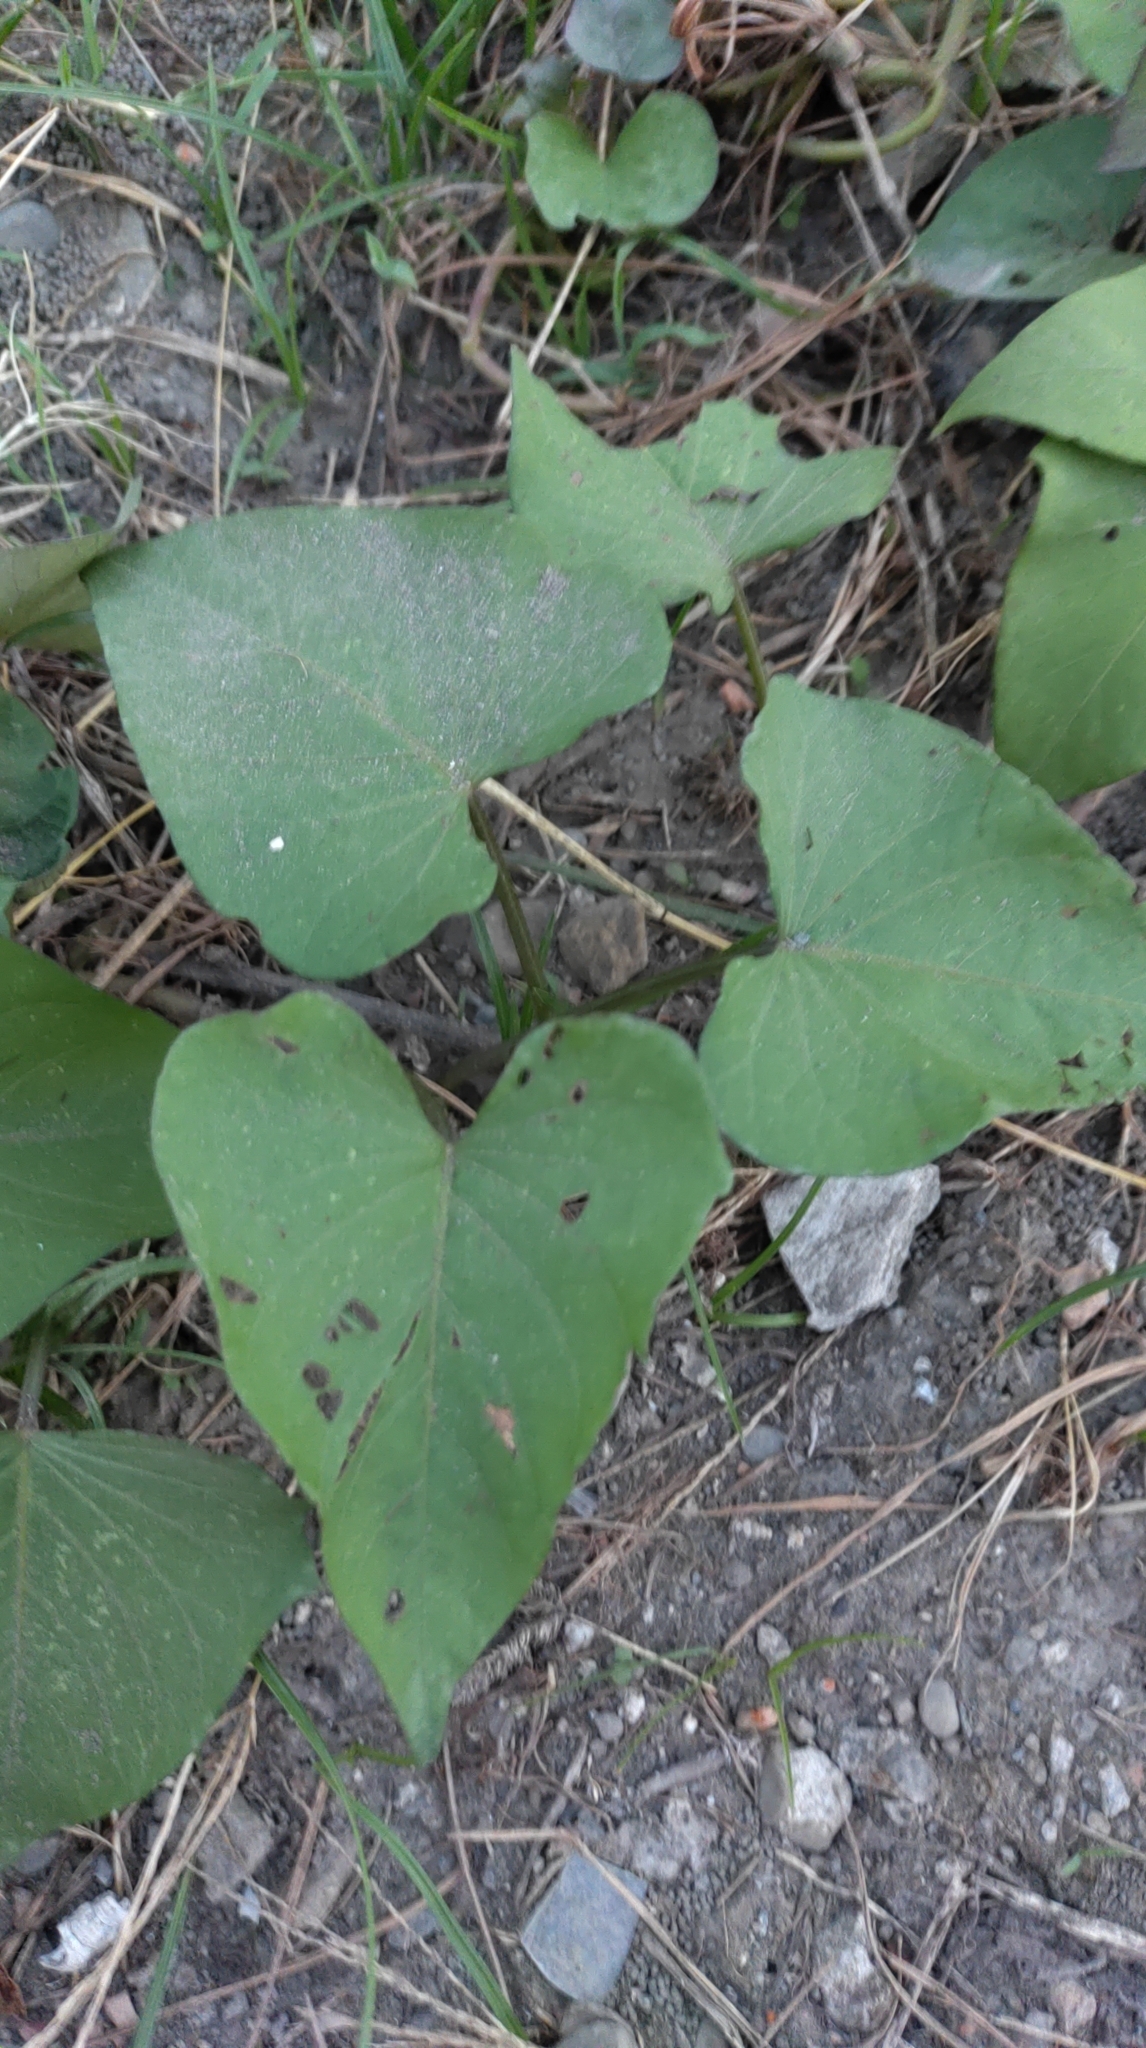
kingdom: Plantae
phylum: Tracheophyta
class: Magnoliopsida
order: Solanales
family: Convolvulaceae
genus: Ipomoea
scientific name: Ipomoea batatas
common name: Sweet-potato
